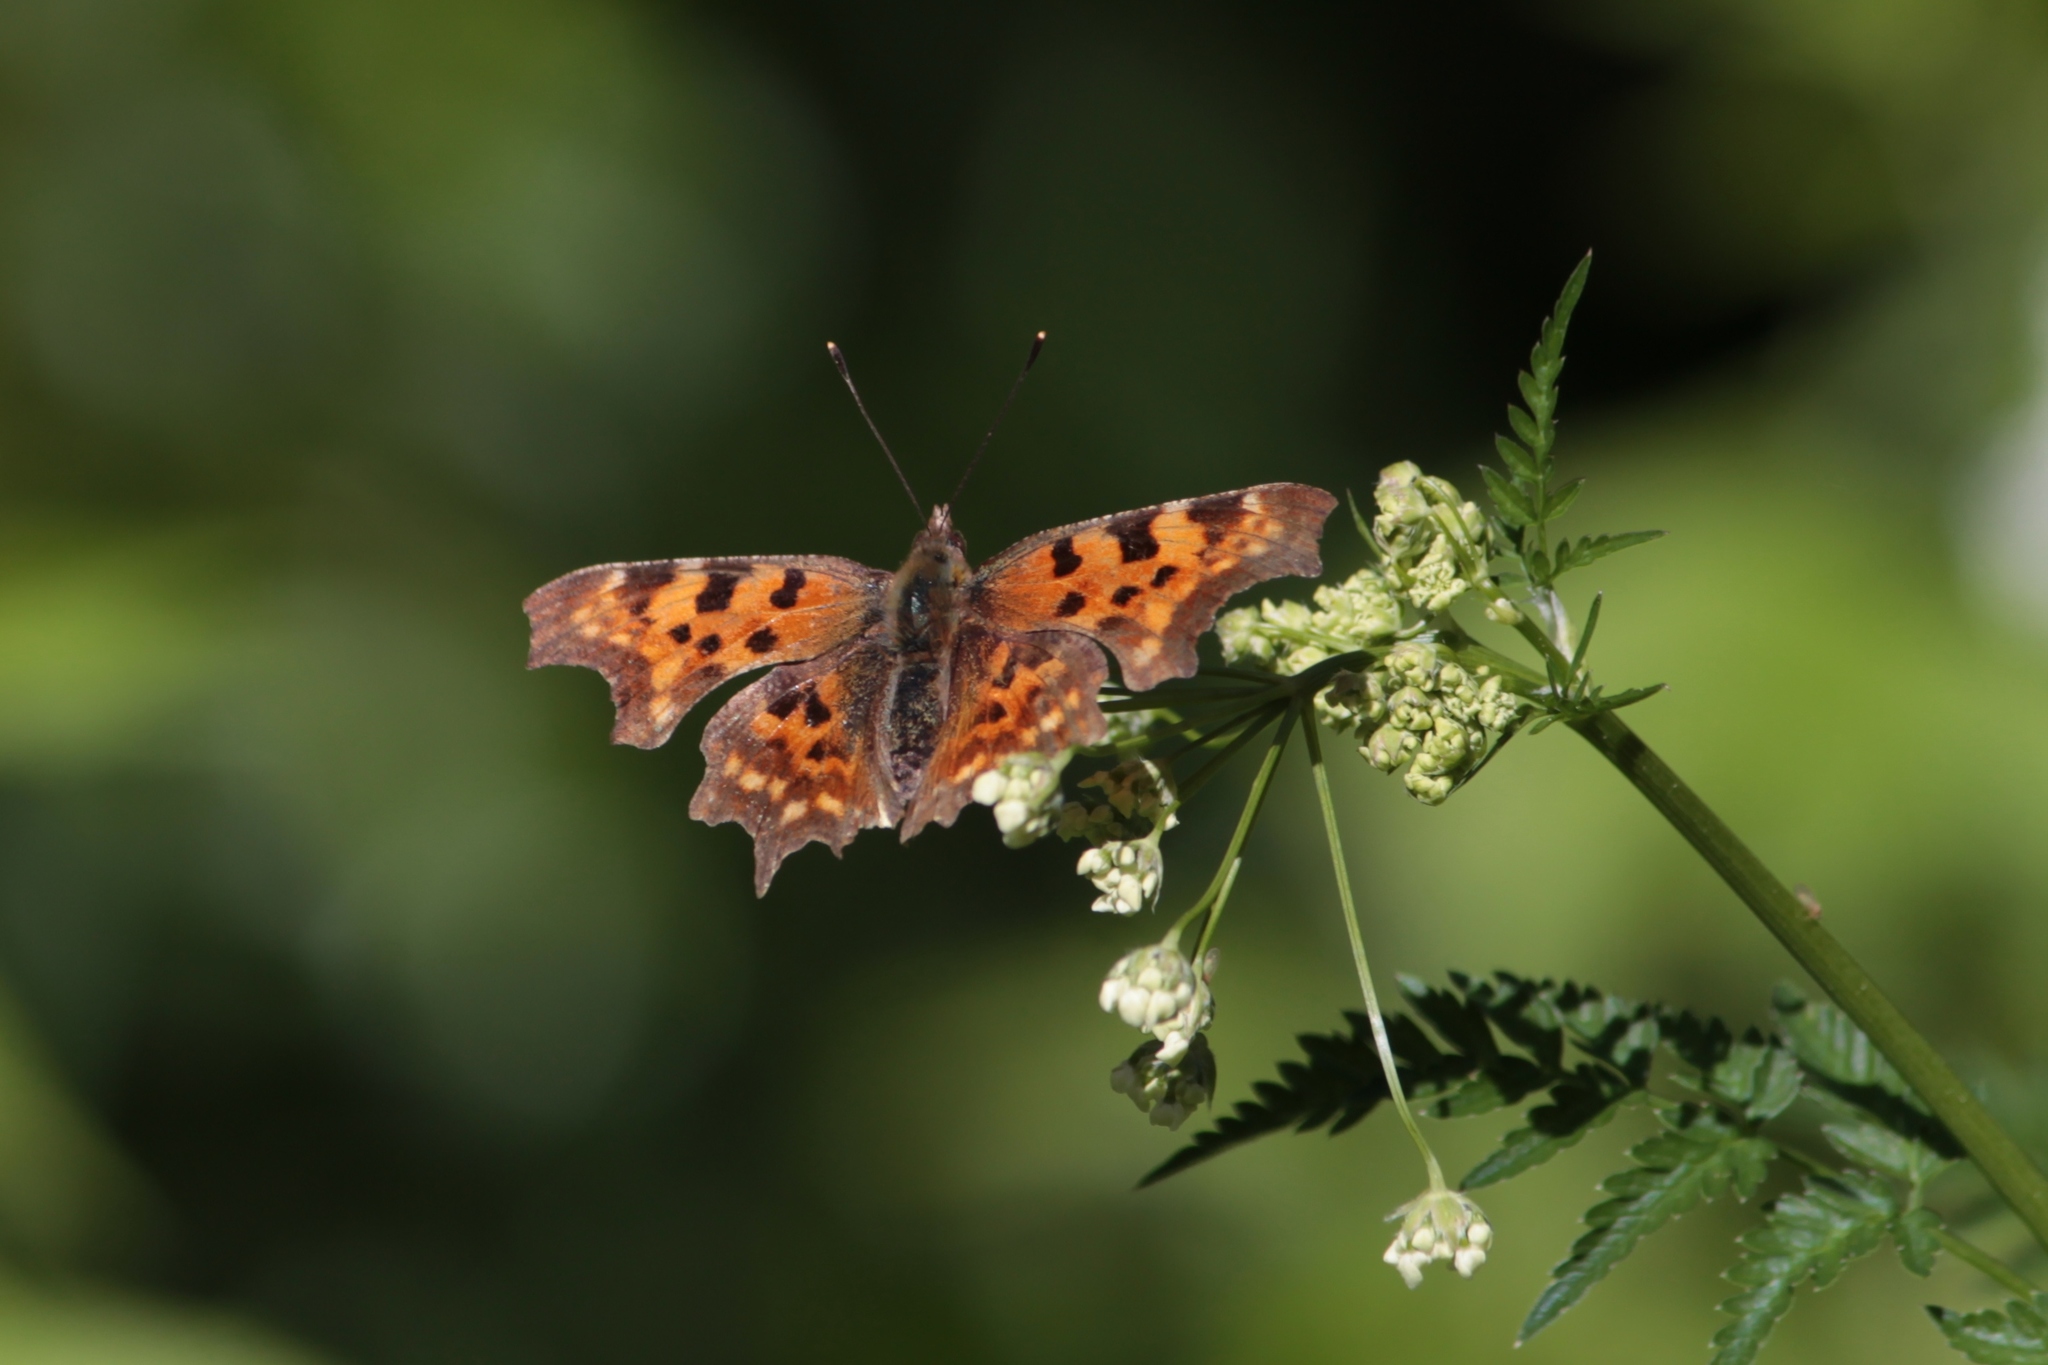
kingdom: Animalia
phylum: Arthropoda
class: Insecta
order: Lepidoptera
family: Nymphalidae
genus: Polygonia
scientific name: Polygonia c-album
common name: Comma
